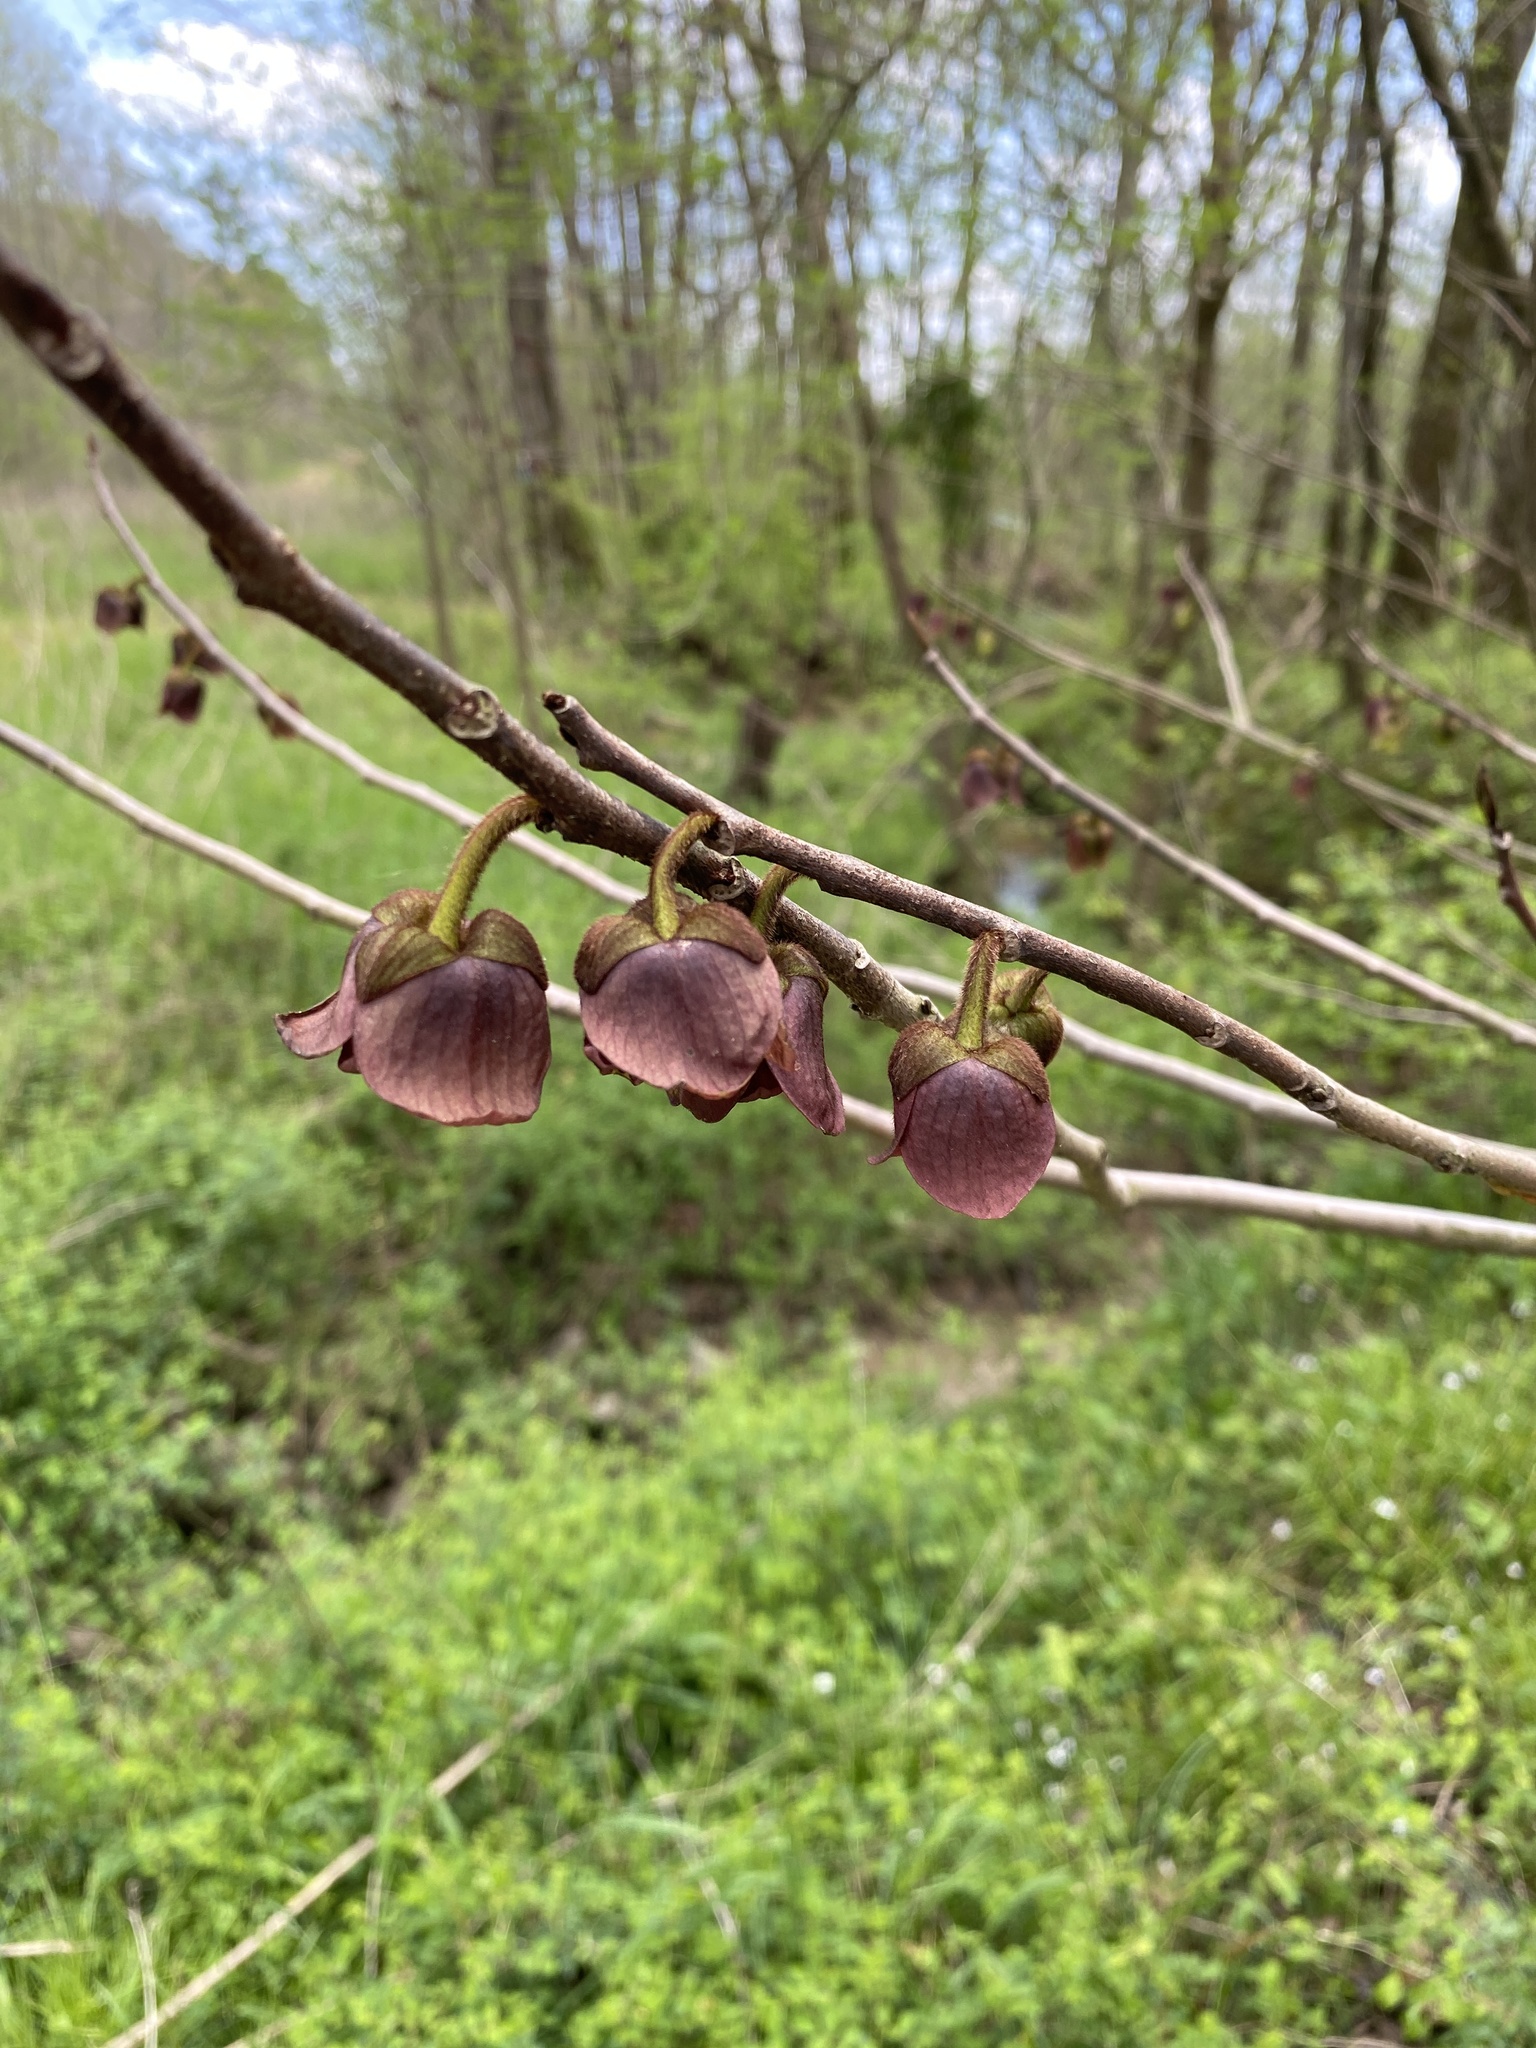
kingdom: Plantae
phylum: Tracheophyta
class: Magnoliopsida
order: Magnoliales
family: Annonaceae
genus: Asimina
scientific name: Asimina triloba
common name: Dog-banana
